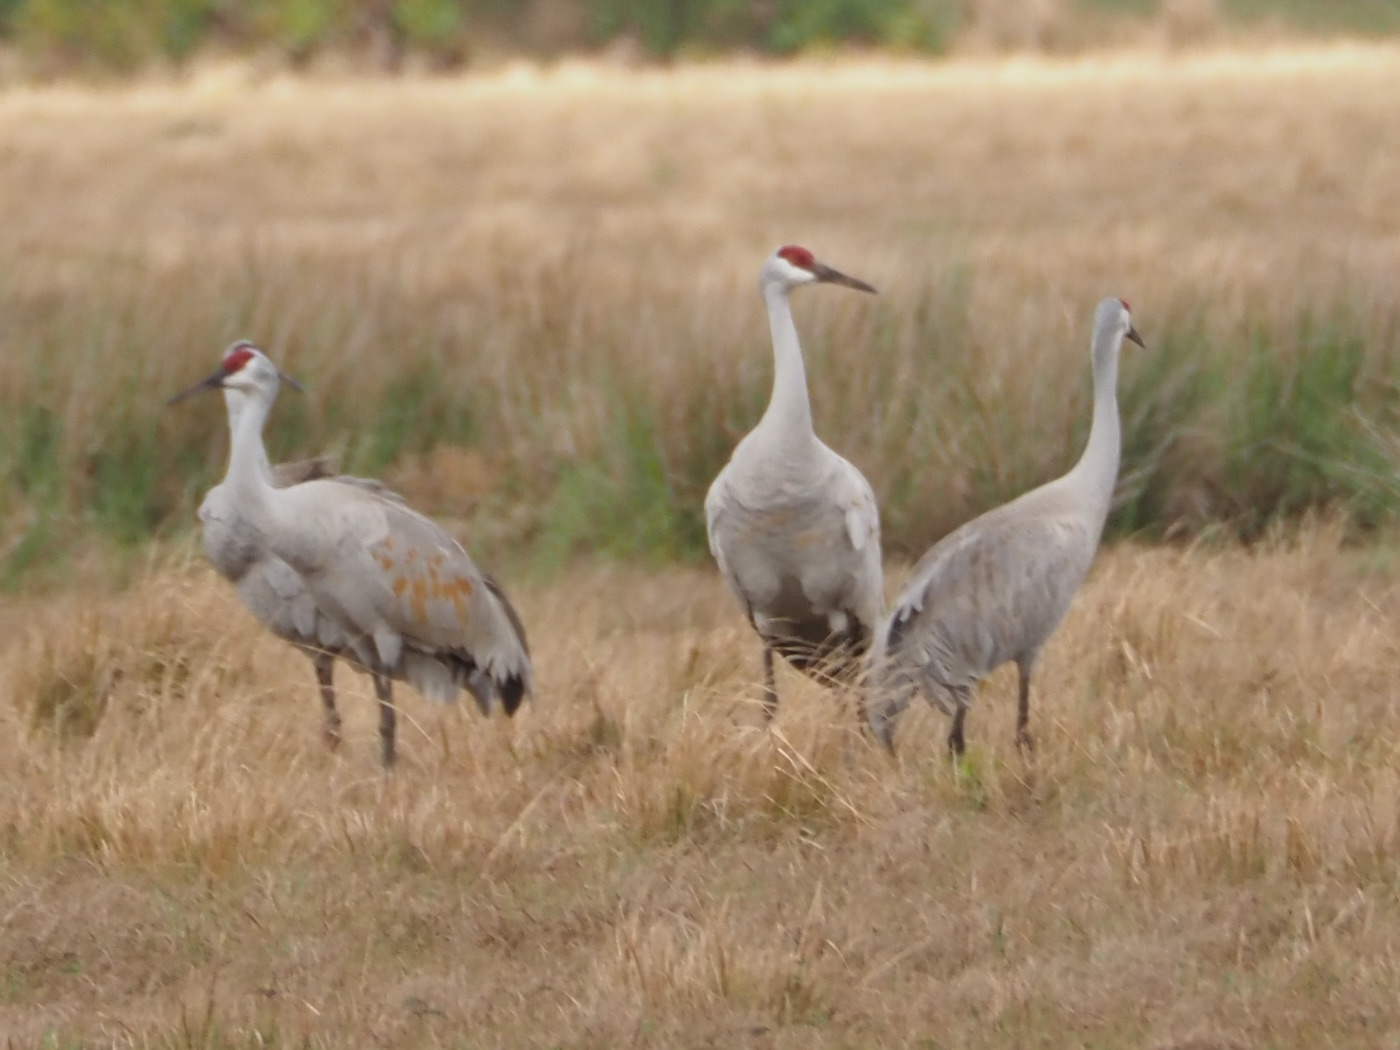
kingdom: Animalia
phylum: Chordata
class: Aves
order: Gruiformes
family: Gruidae
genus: Grus
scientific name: Grus canadensis
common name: Sandhill crane
